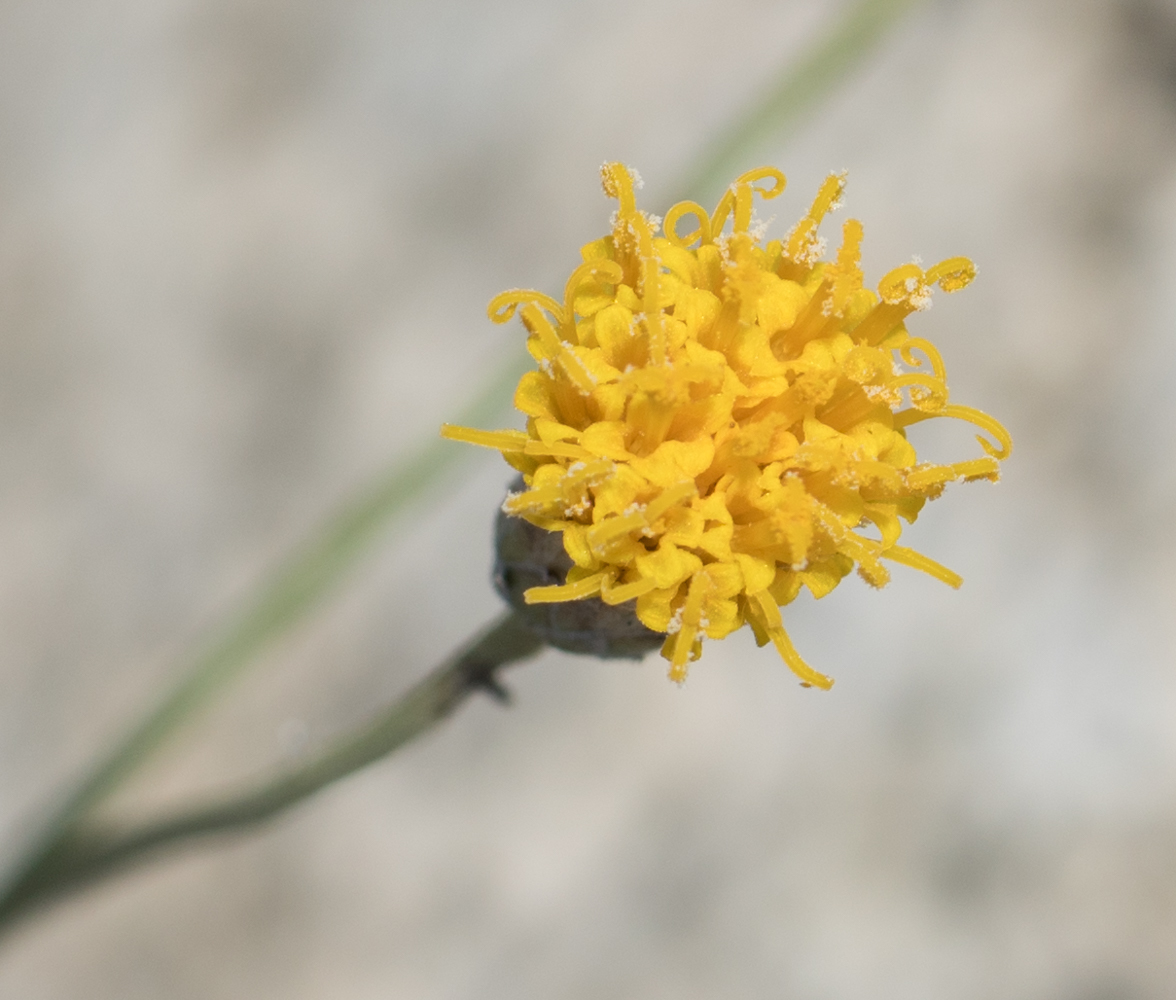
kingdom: Plantae
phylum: Tracheophyta
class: Magnoliopsida
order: Asterales
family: Asteraceae
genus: Bebbia
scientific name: Bebbia juncea
